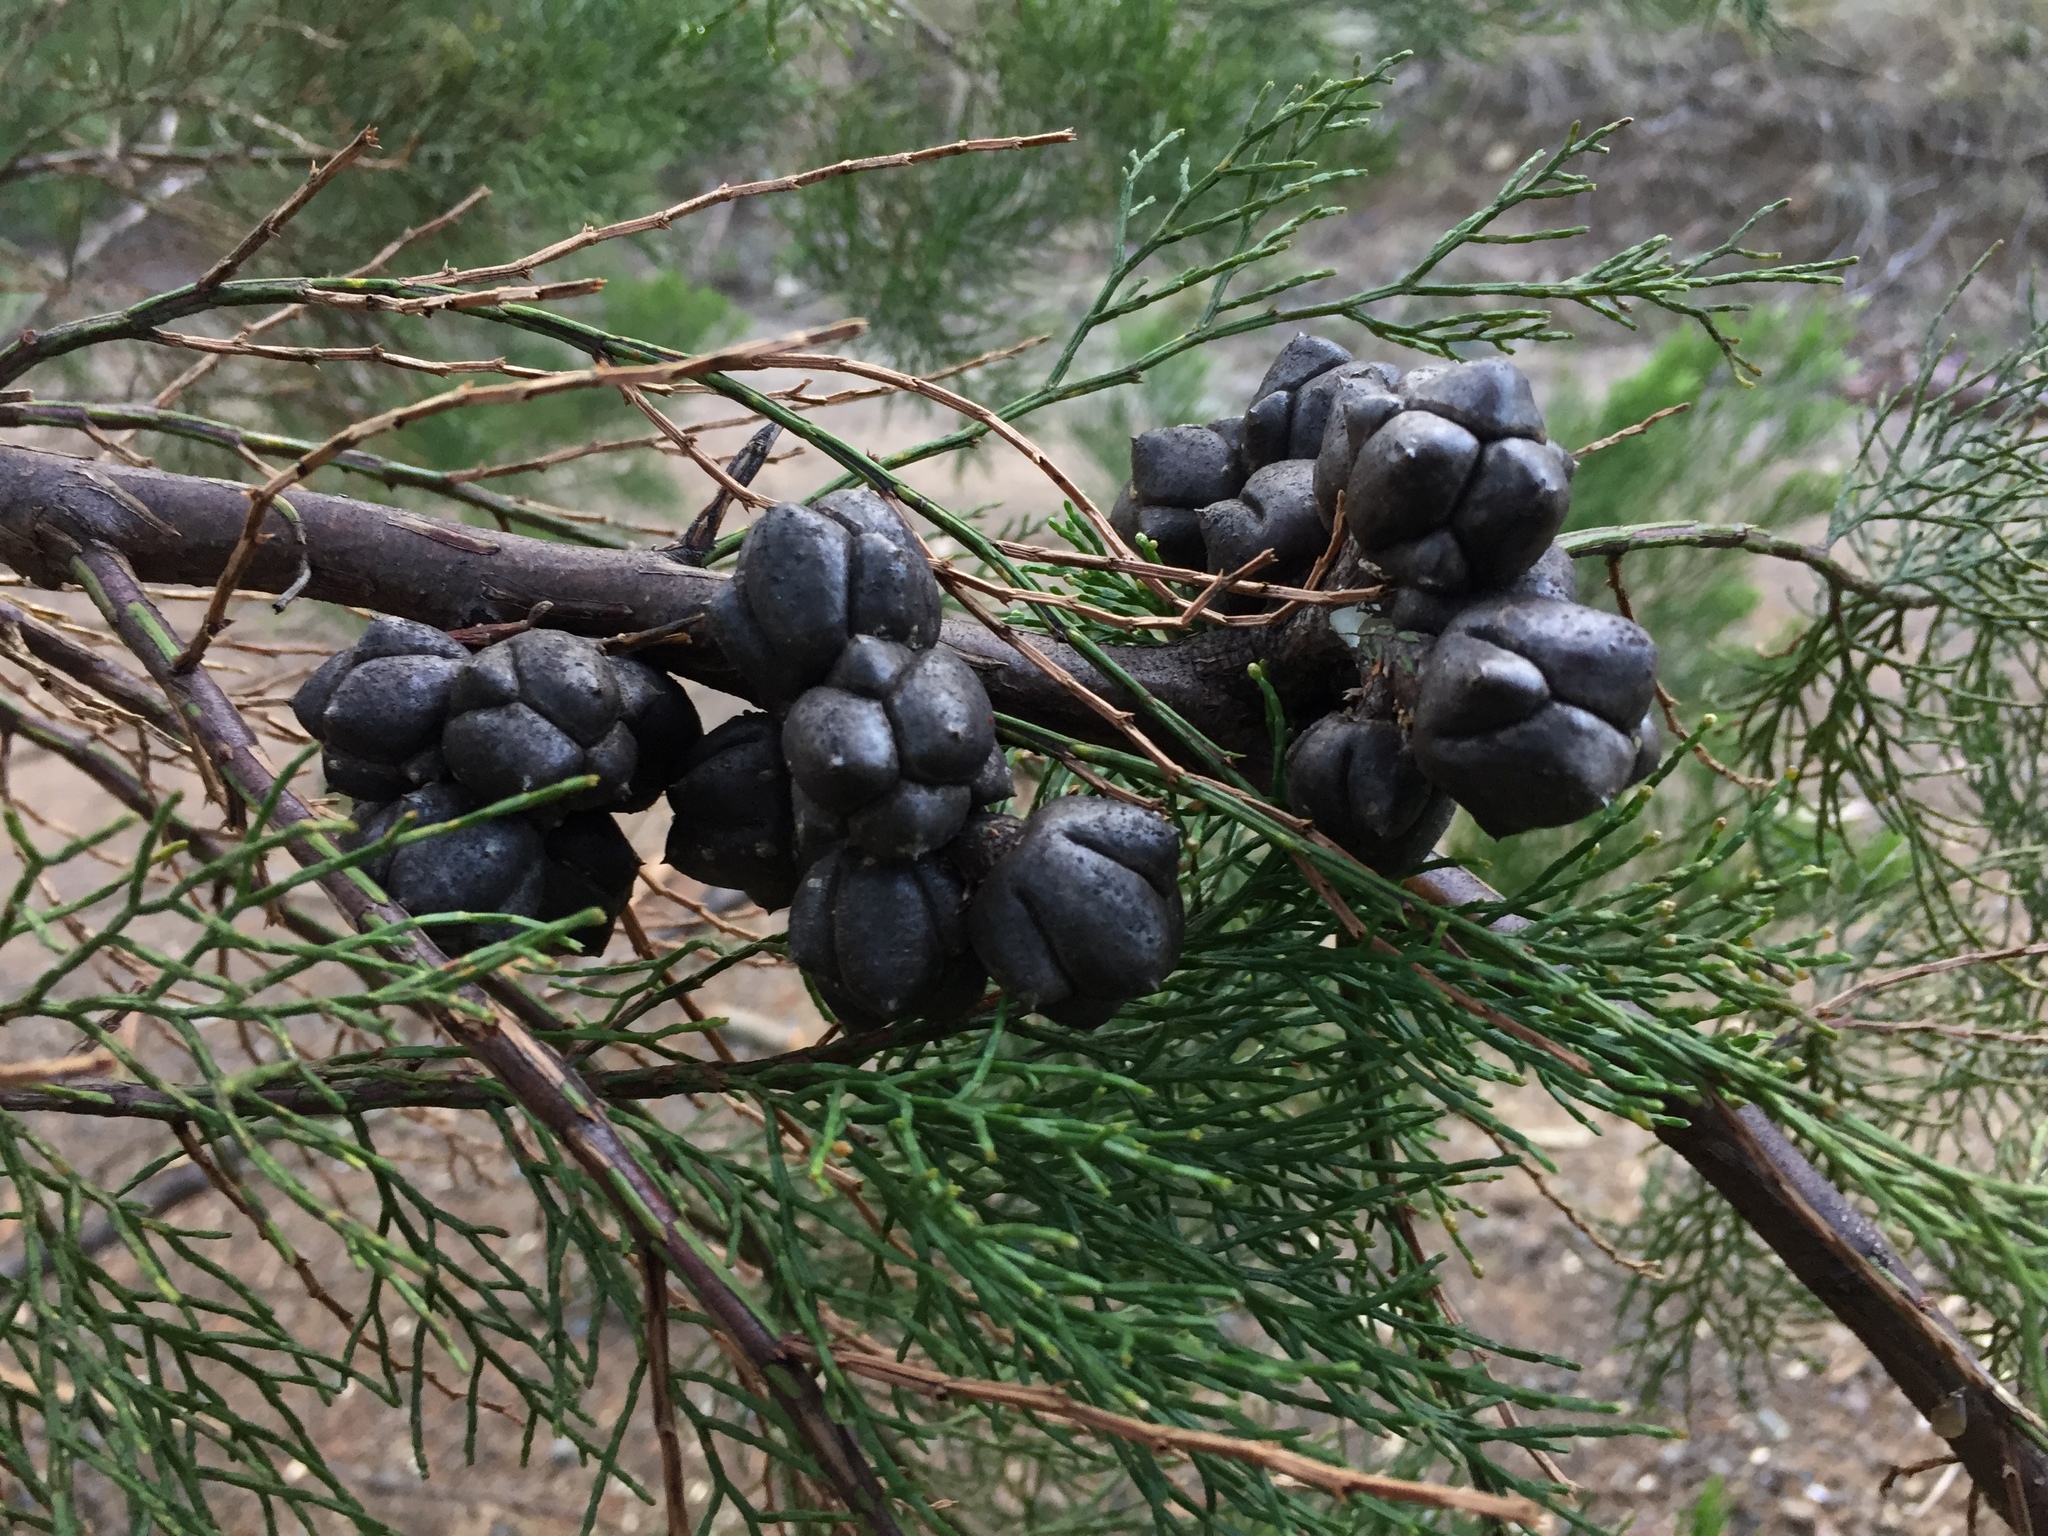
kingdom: Plantae
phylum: Tracheophyta
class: Pinopsida
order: Pinales
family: Cupressaceae
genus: Callitris
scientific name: Callitris rhomboidea
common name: Illawara mountain pine
